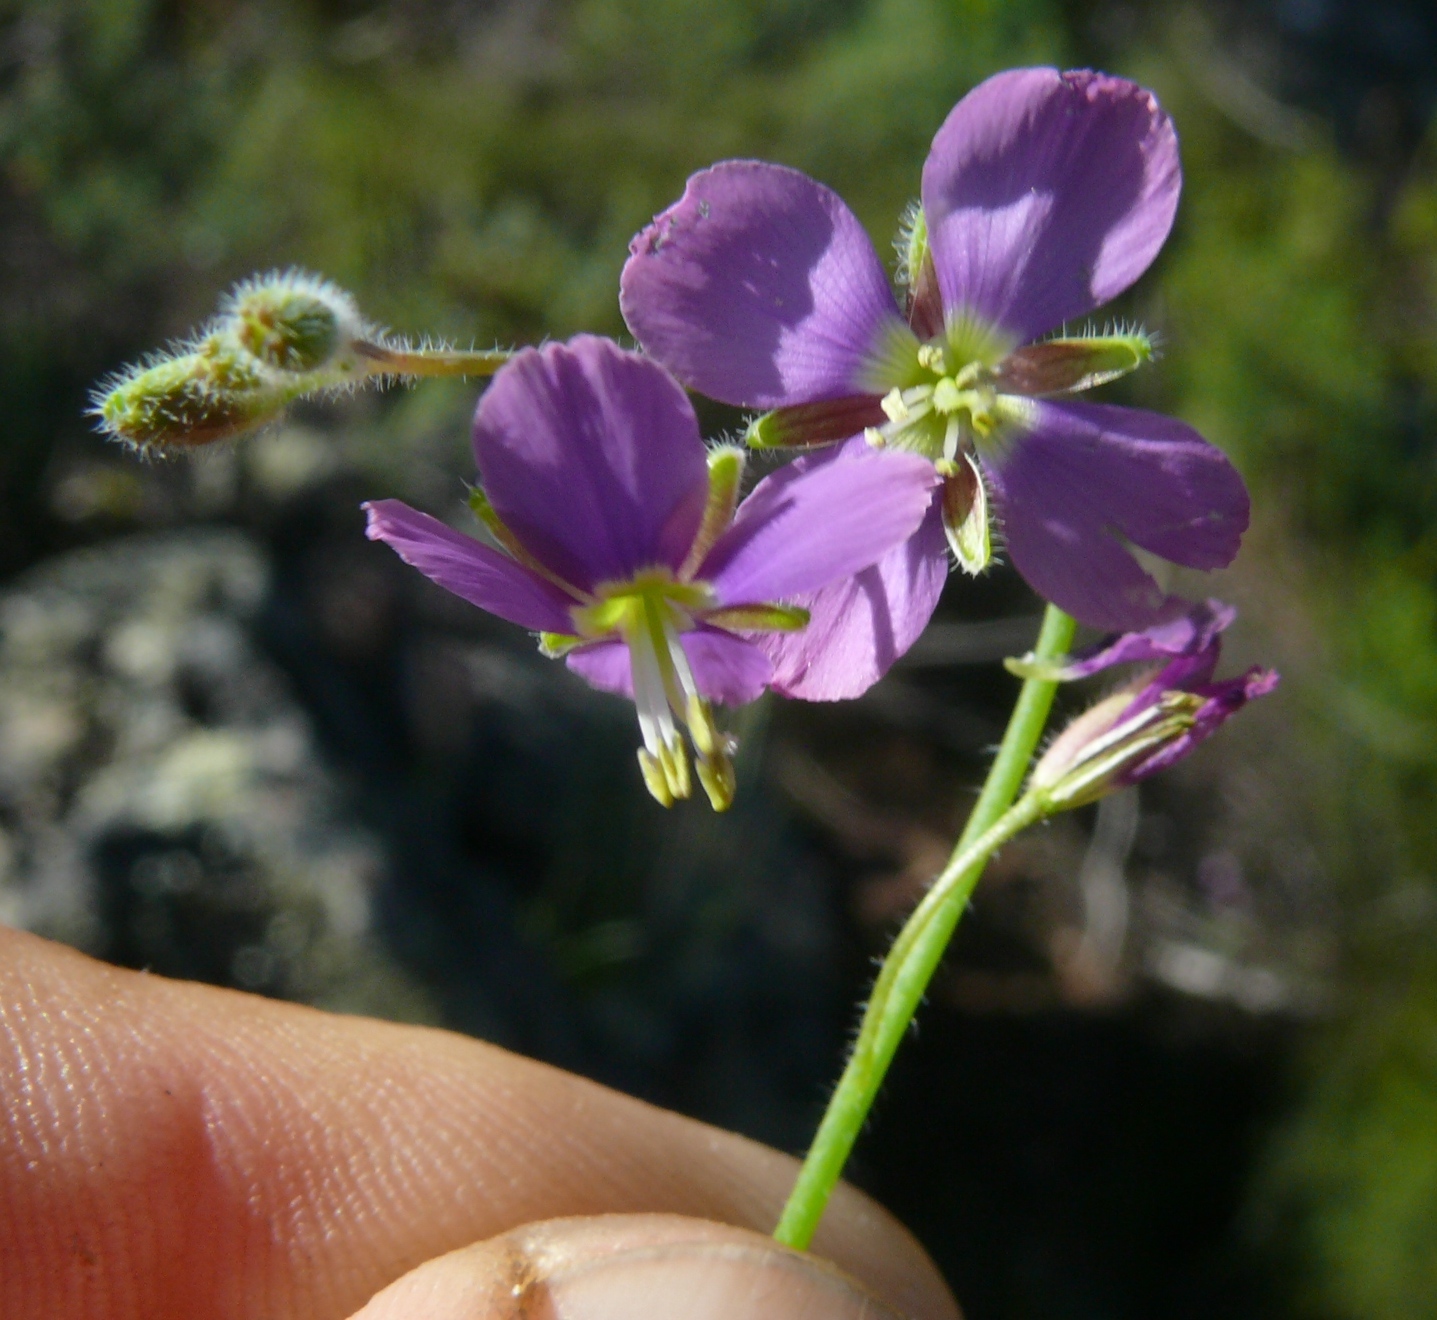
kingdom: Plantae
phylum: Tracheophyta
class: Magnoliopsida
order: Brassicales
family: Brassicaceae
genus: Heliophila
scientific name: Heliophila africana
